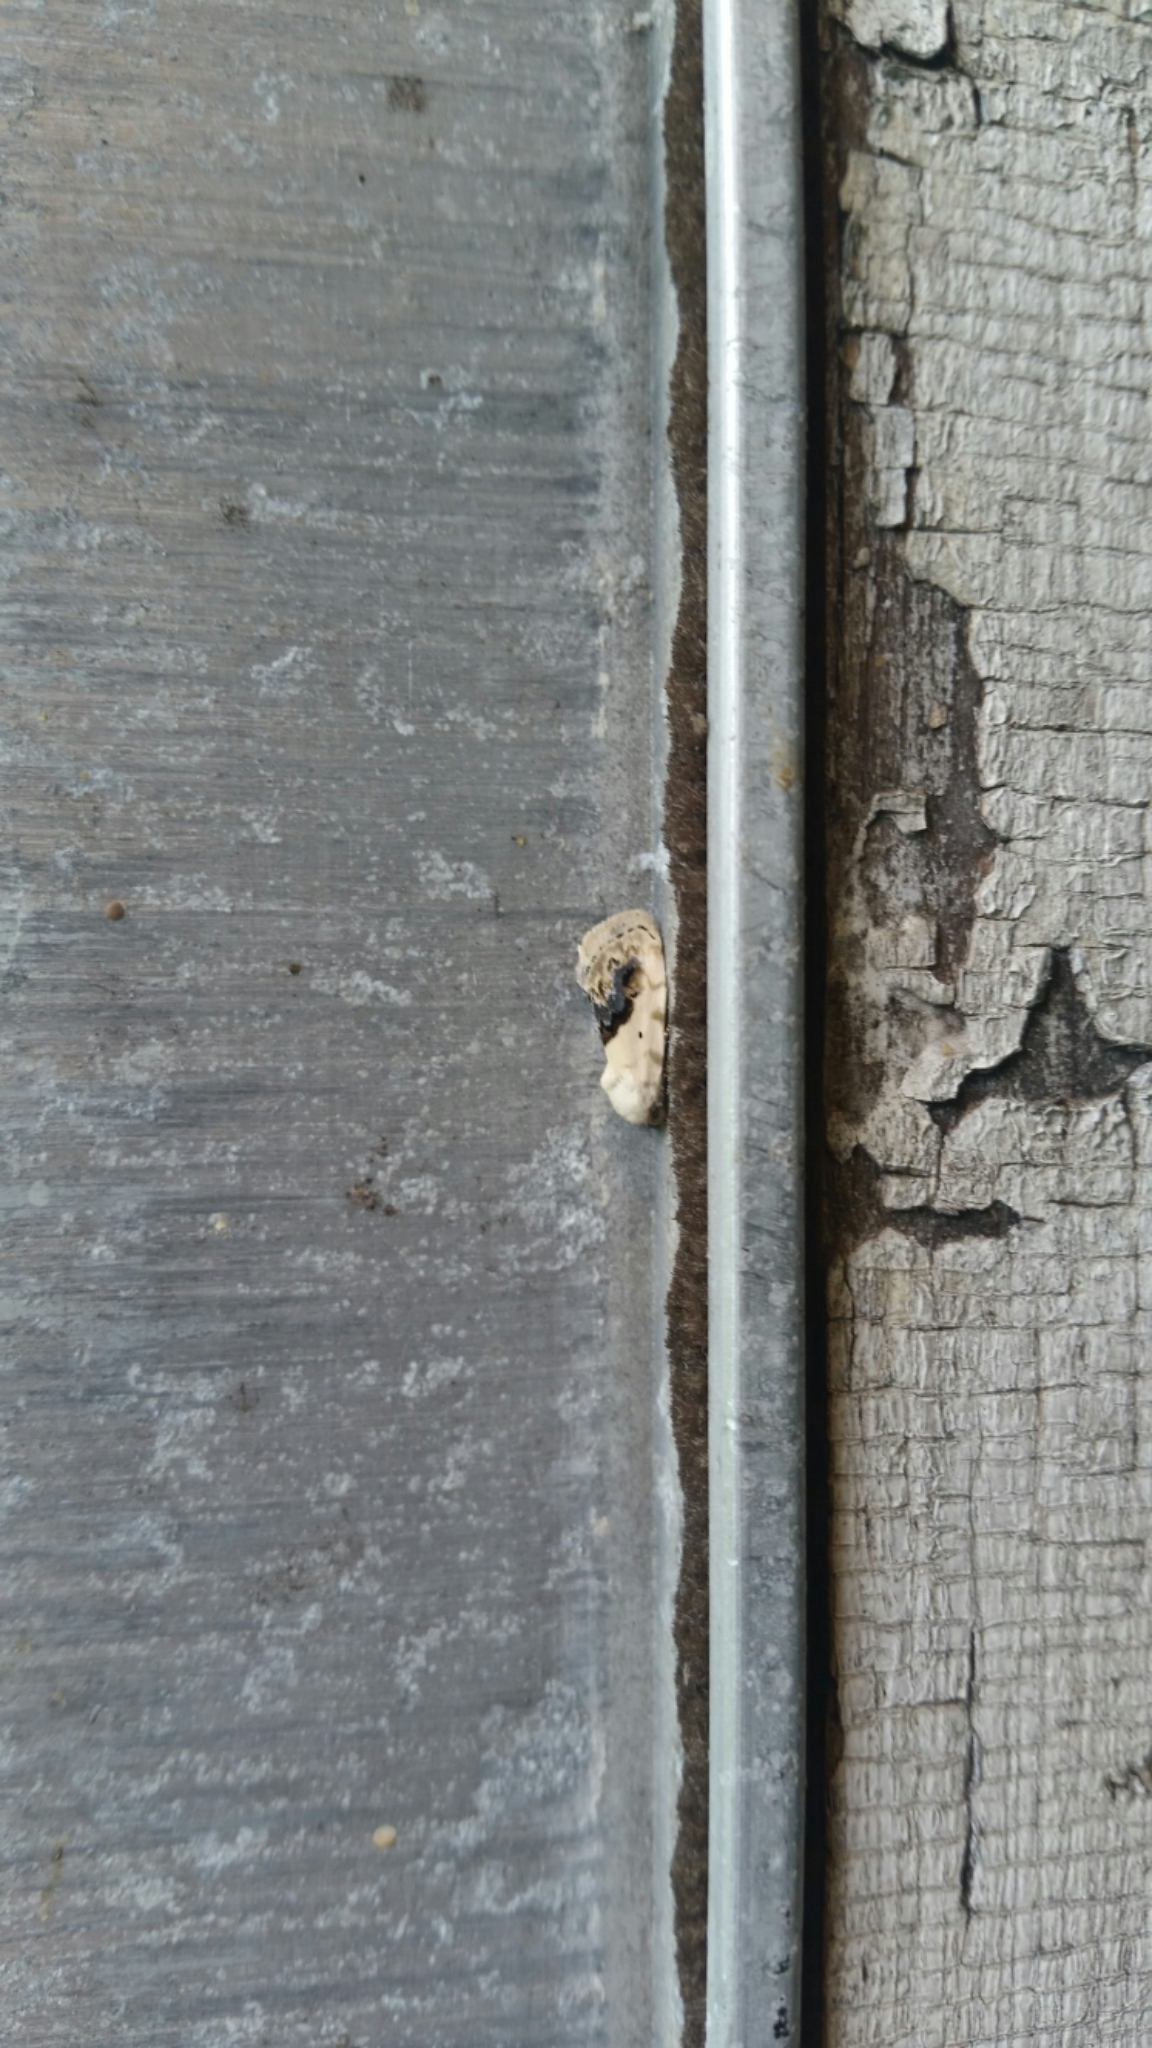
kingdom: Animalia
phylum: Arthropoda
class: Insecta
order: Lepidoptera
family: Noctuidae
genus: Acontia
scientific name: Acontia erastrioides
